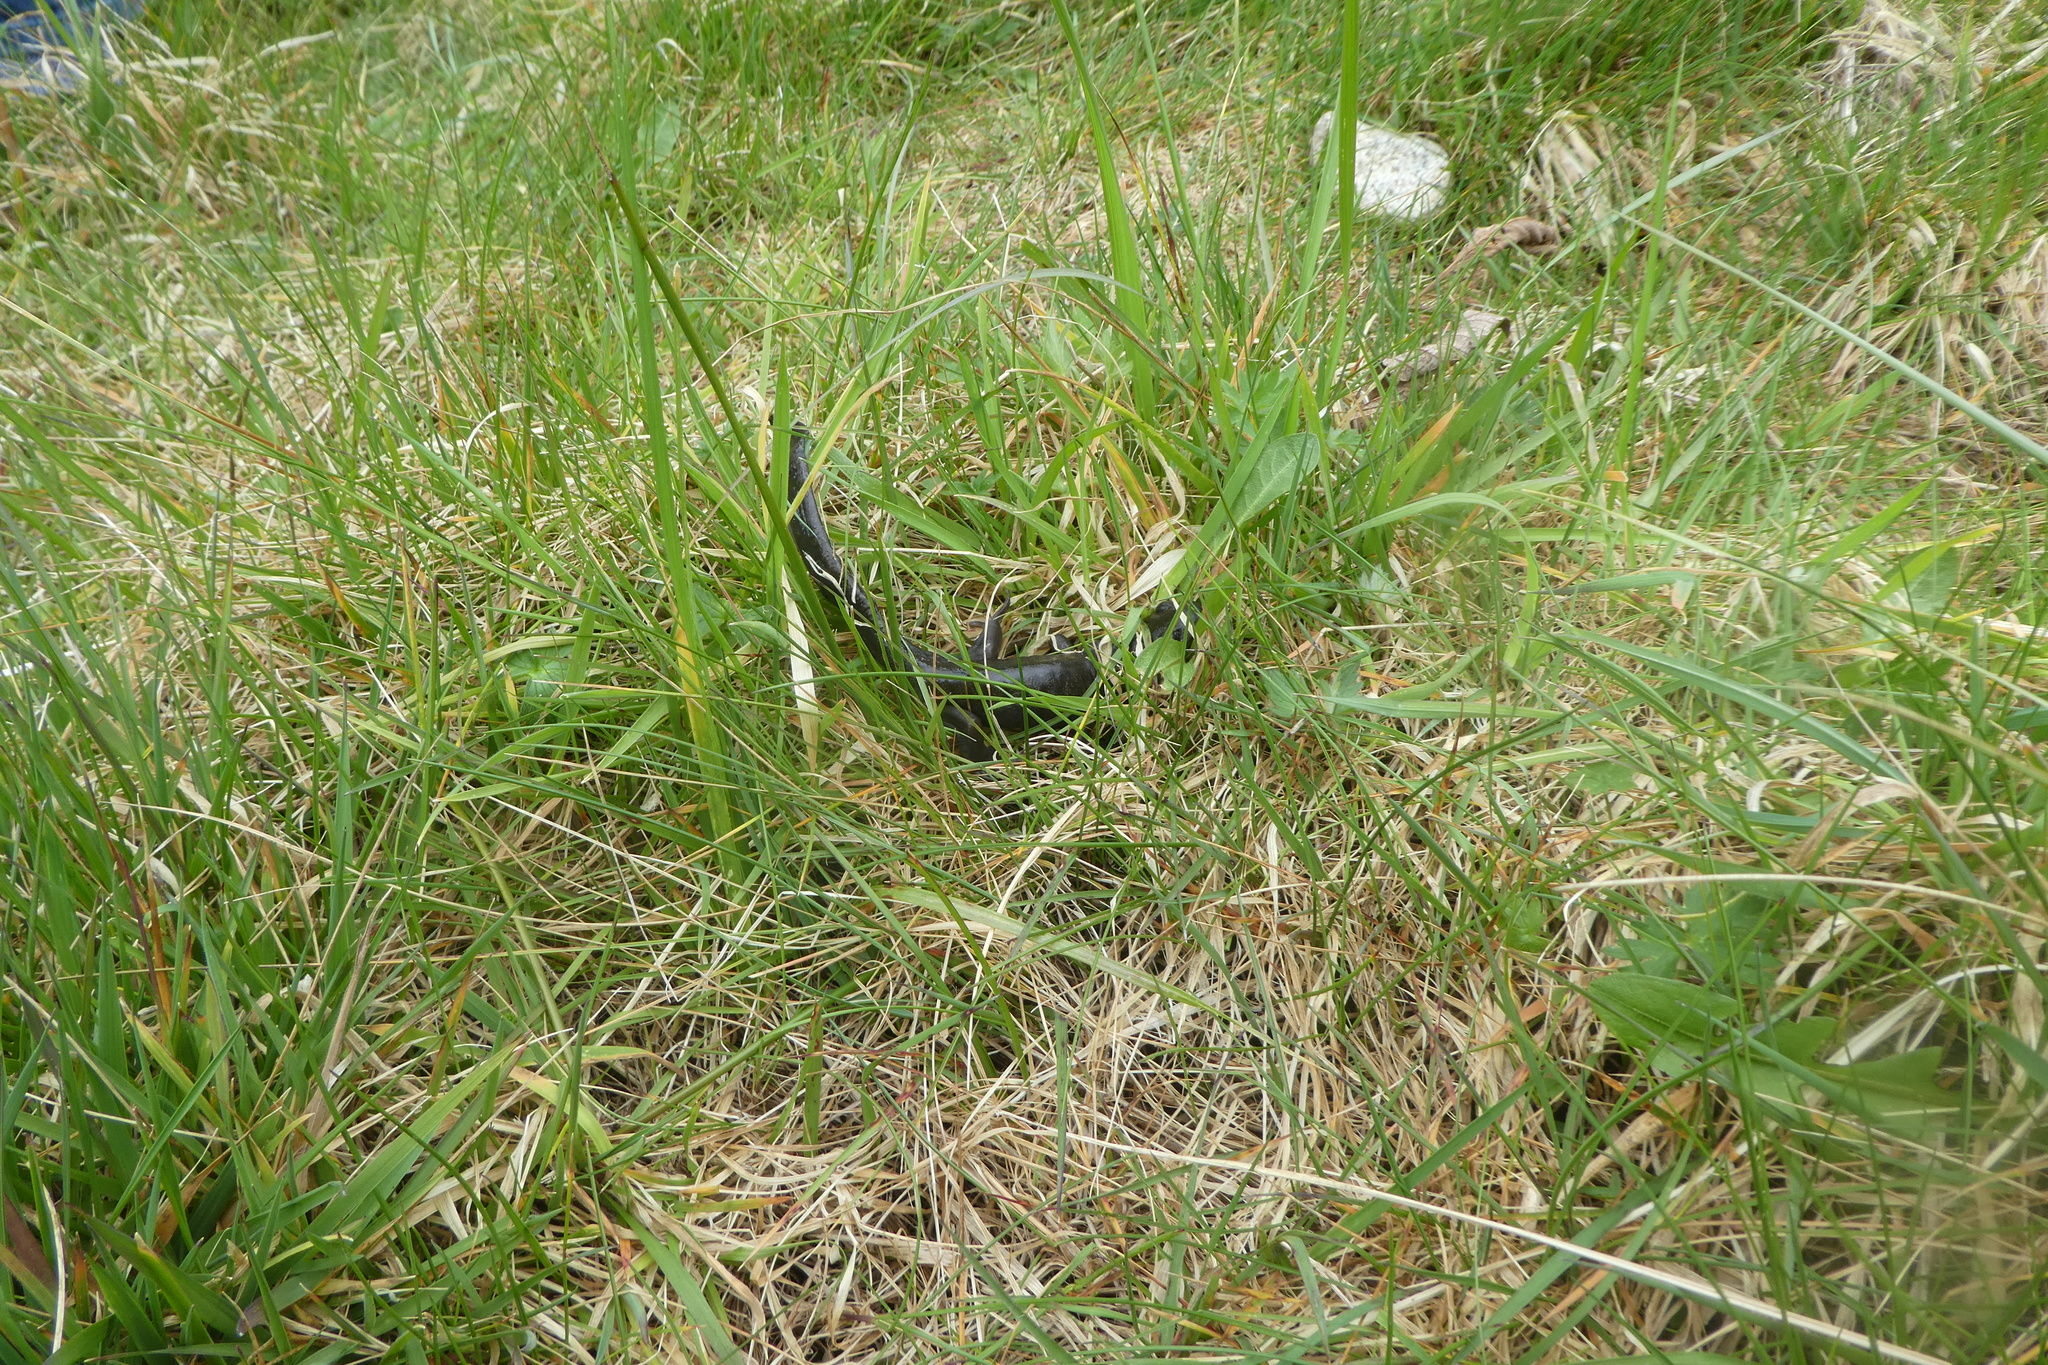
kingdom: Animalia
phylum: Chordata
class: Amphibia
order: Caudata
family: Ambystomatidae
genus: Ambystoma
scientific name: Ambystoma gracile
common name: Northwestern salamander
